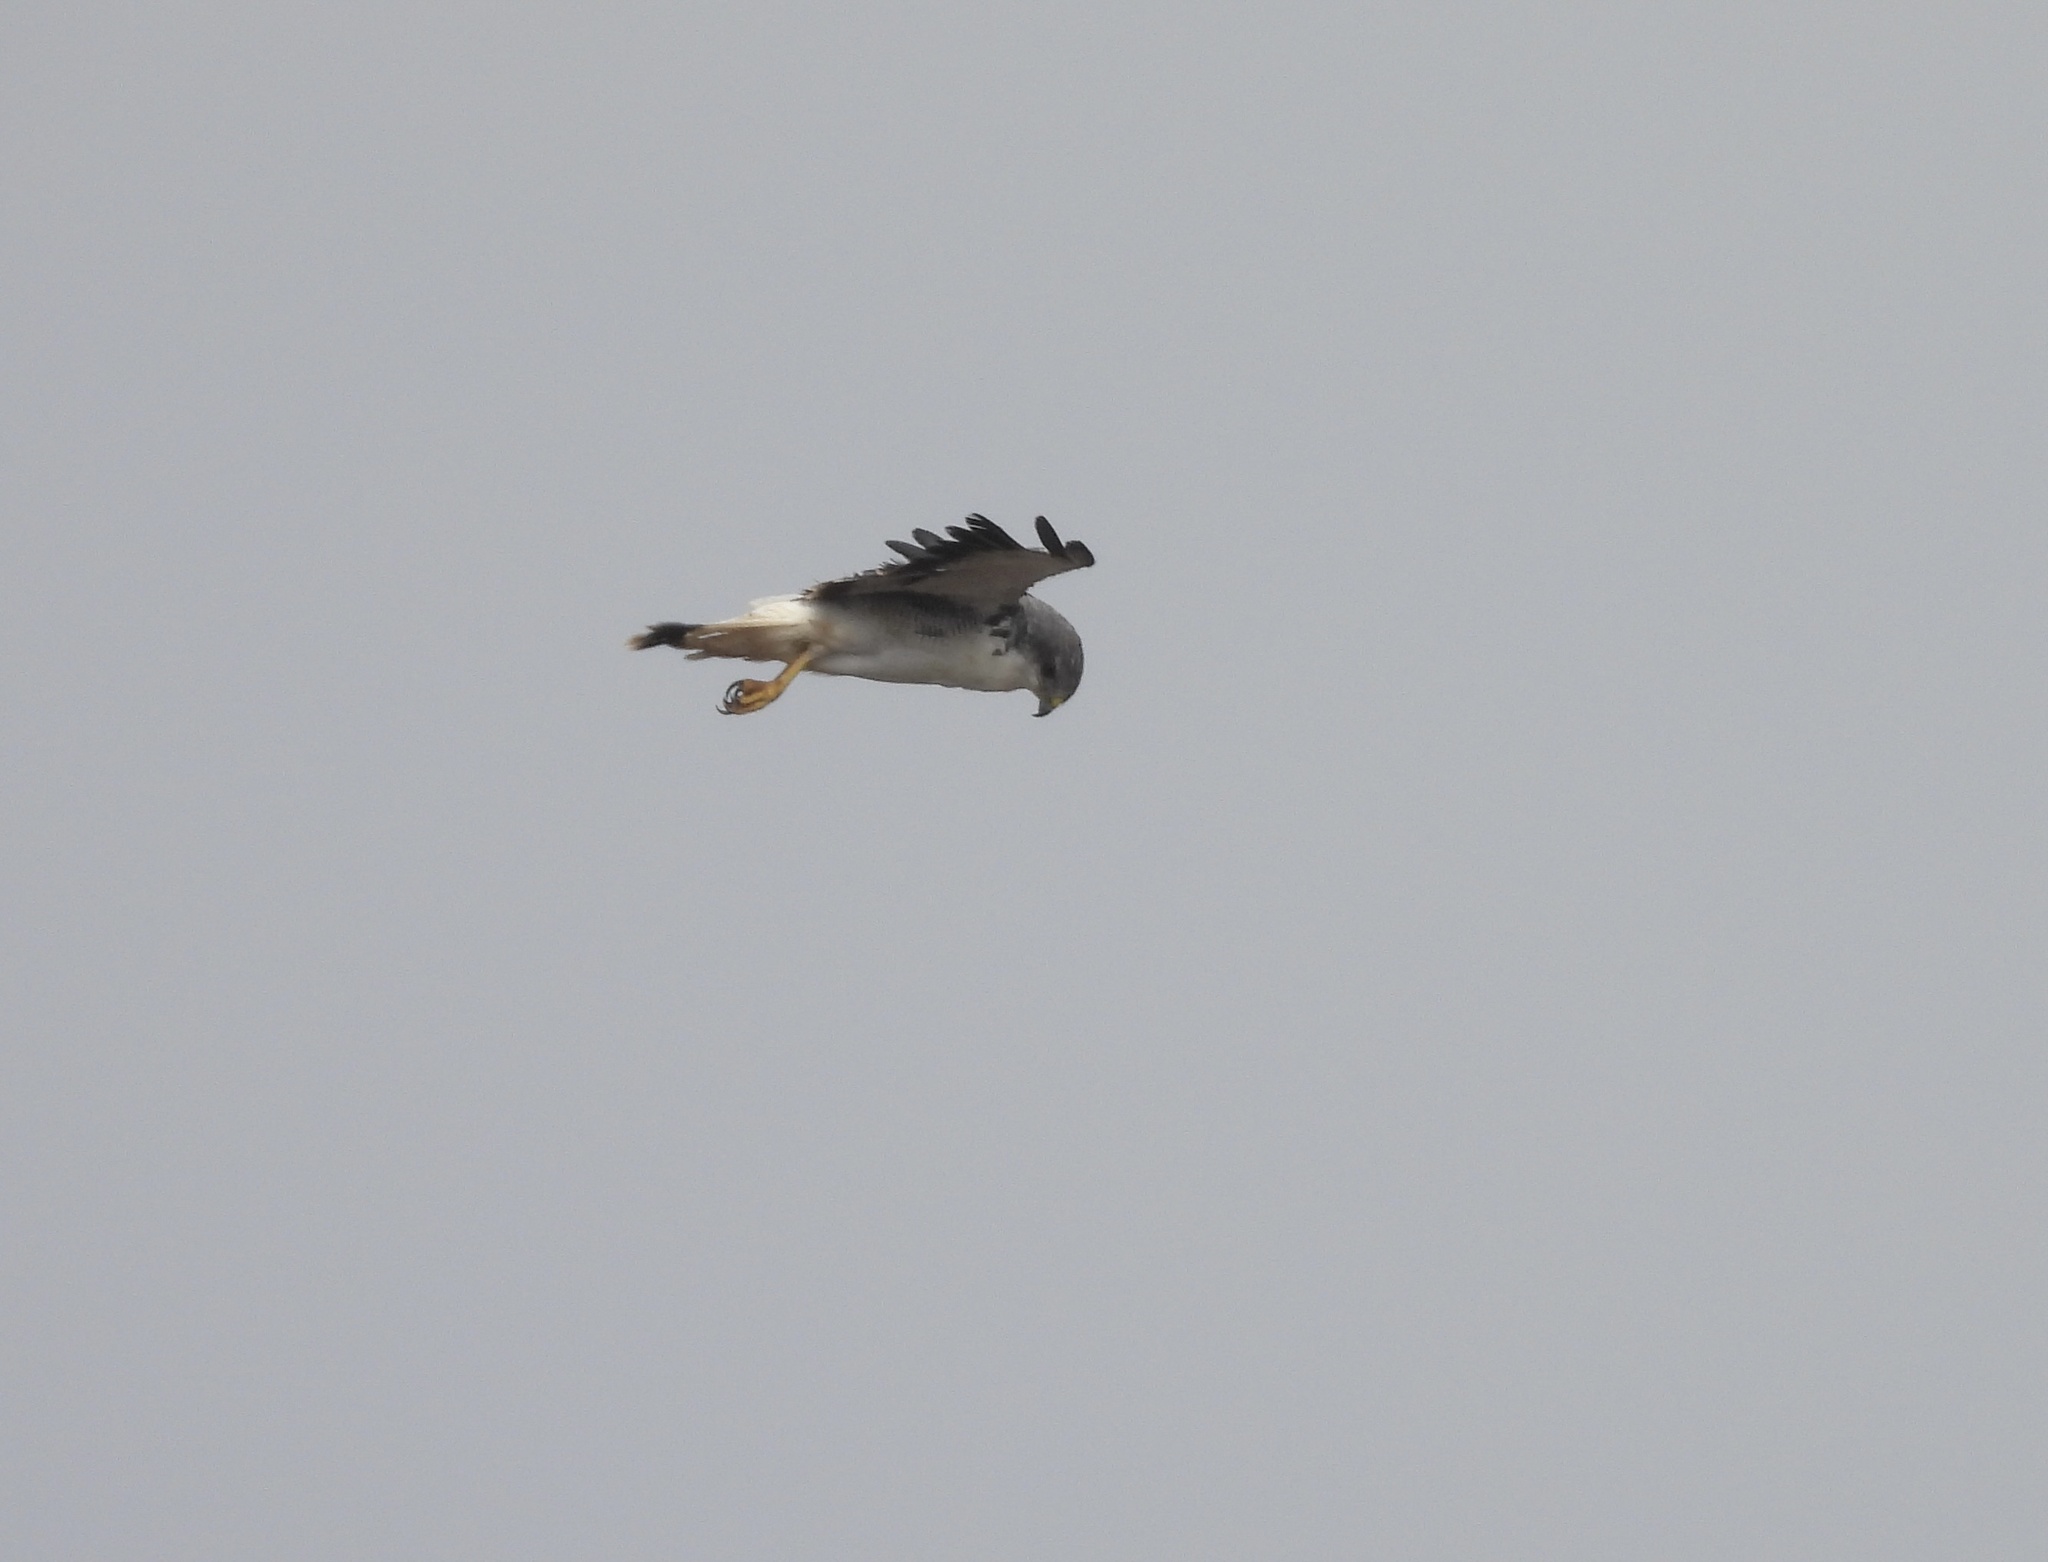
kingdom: Animalia
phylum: Chordata
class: Aves
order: Accipitriformes
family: Accipitridae
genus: Buteo
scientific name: Buteo polyosoma
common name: Variable hawk
